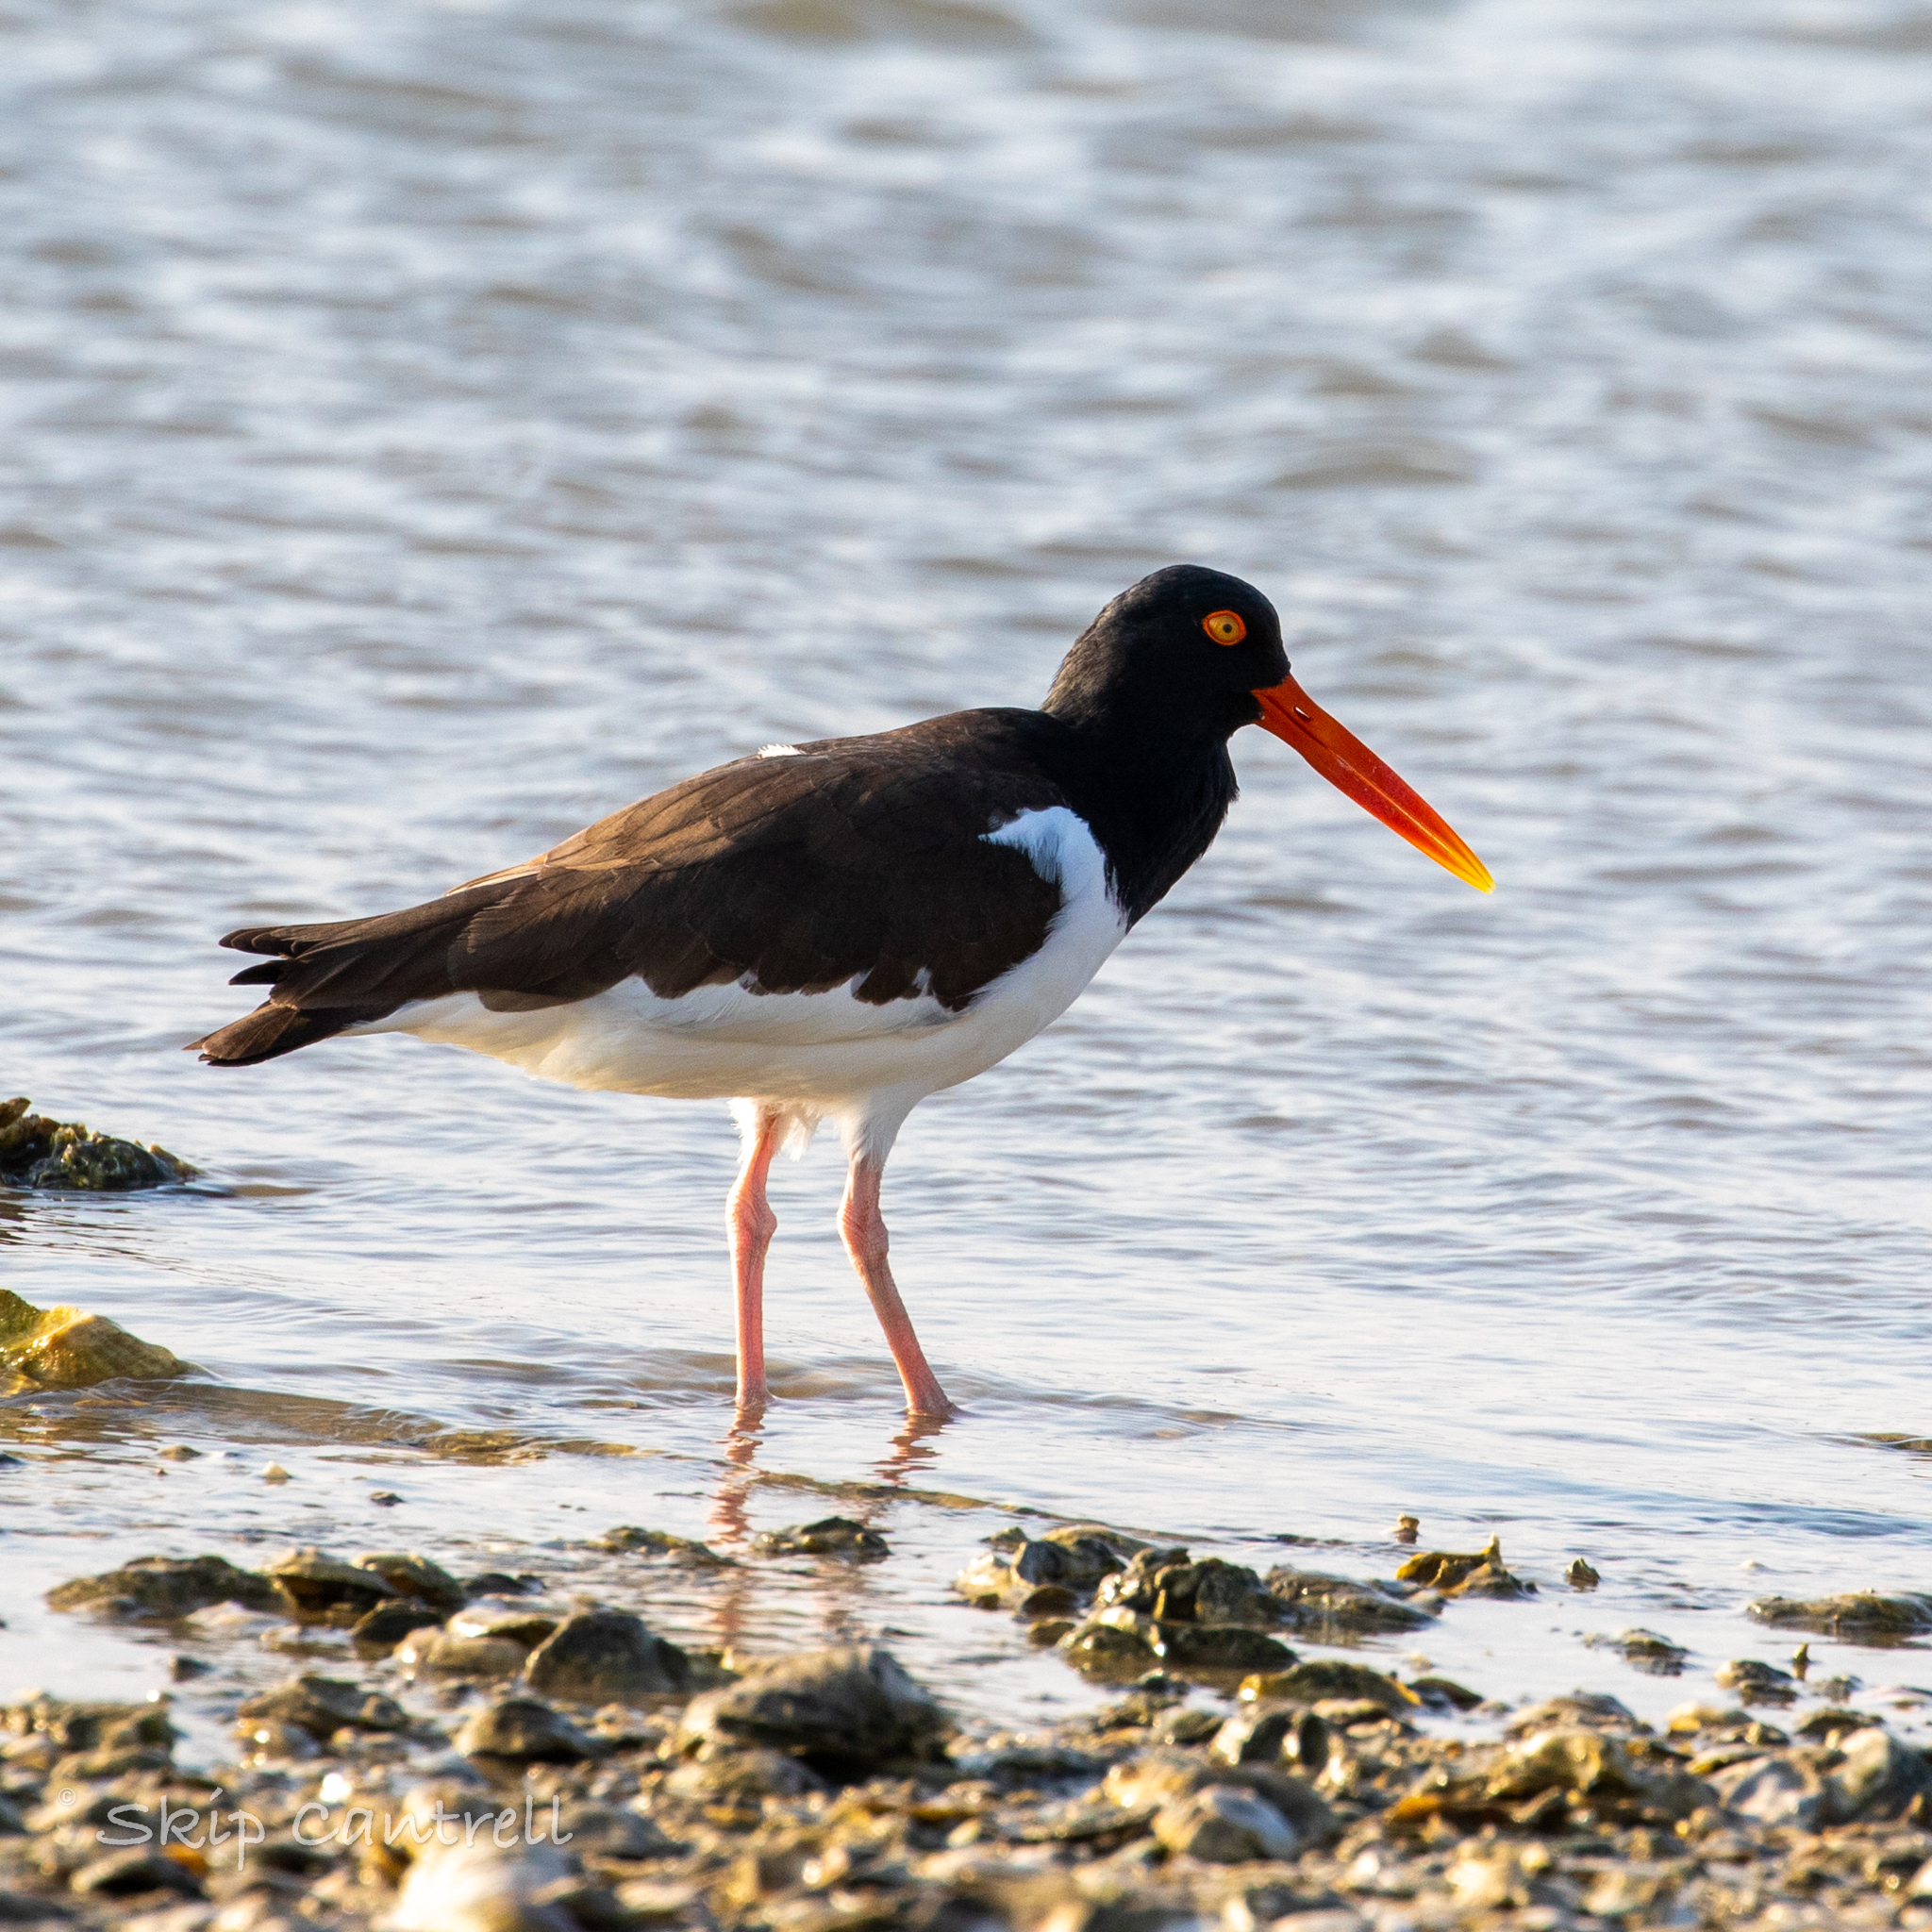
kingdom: Animalia
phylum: Chordata
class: Aves
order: Charadriiformes
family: Haematopodidae
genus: Haematopus
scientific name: Haematopus palliatus
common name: American oystercatcher
